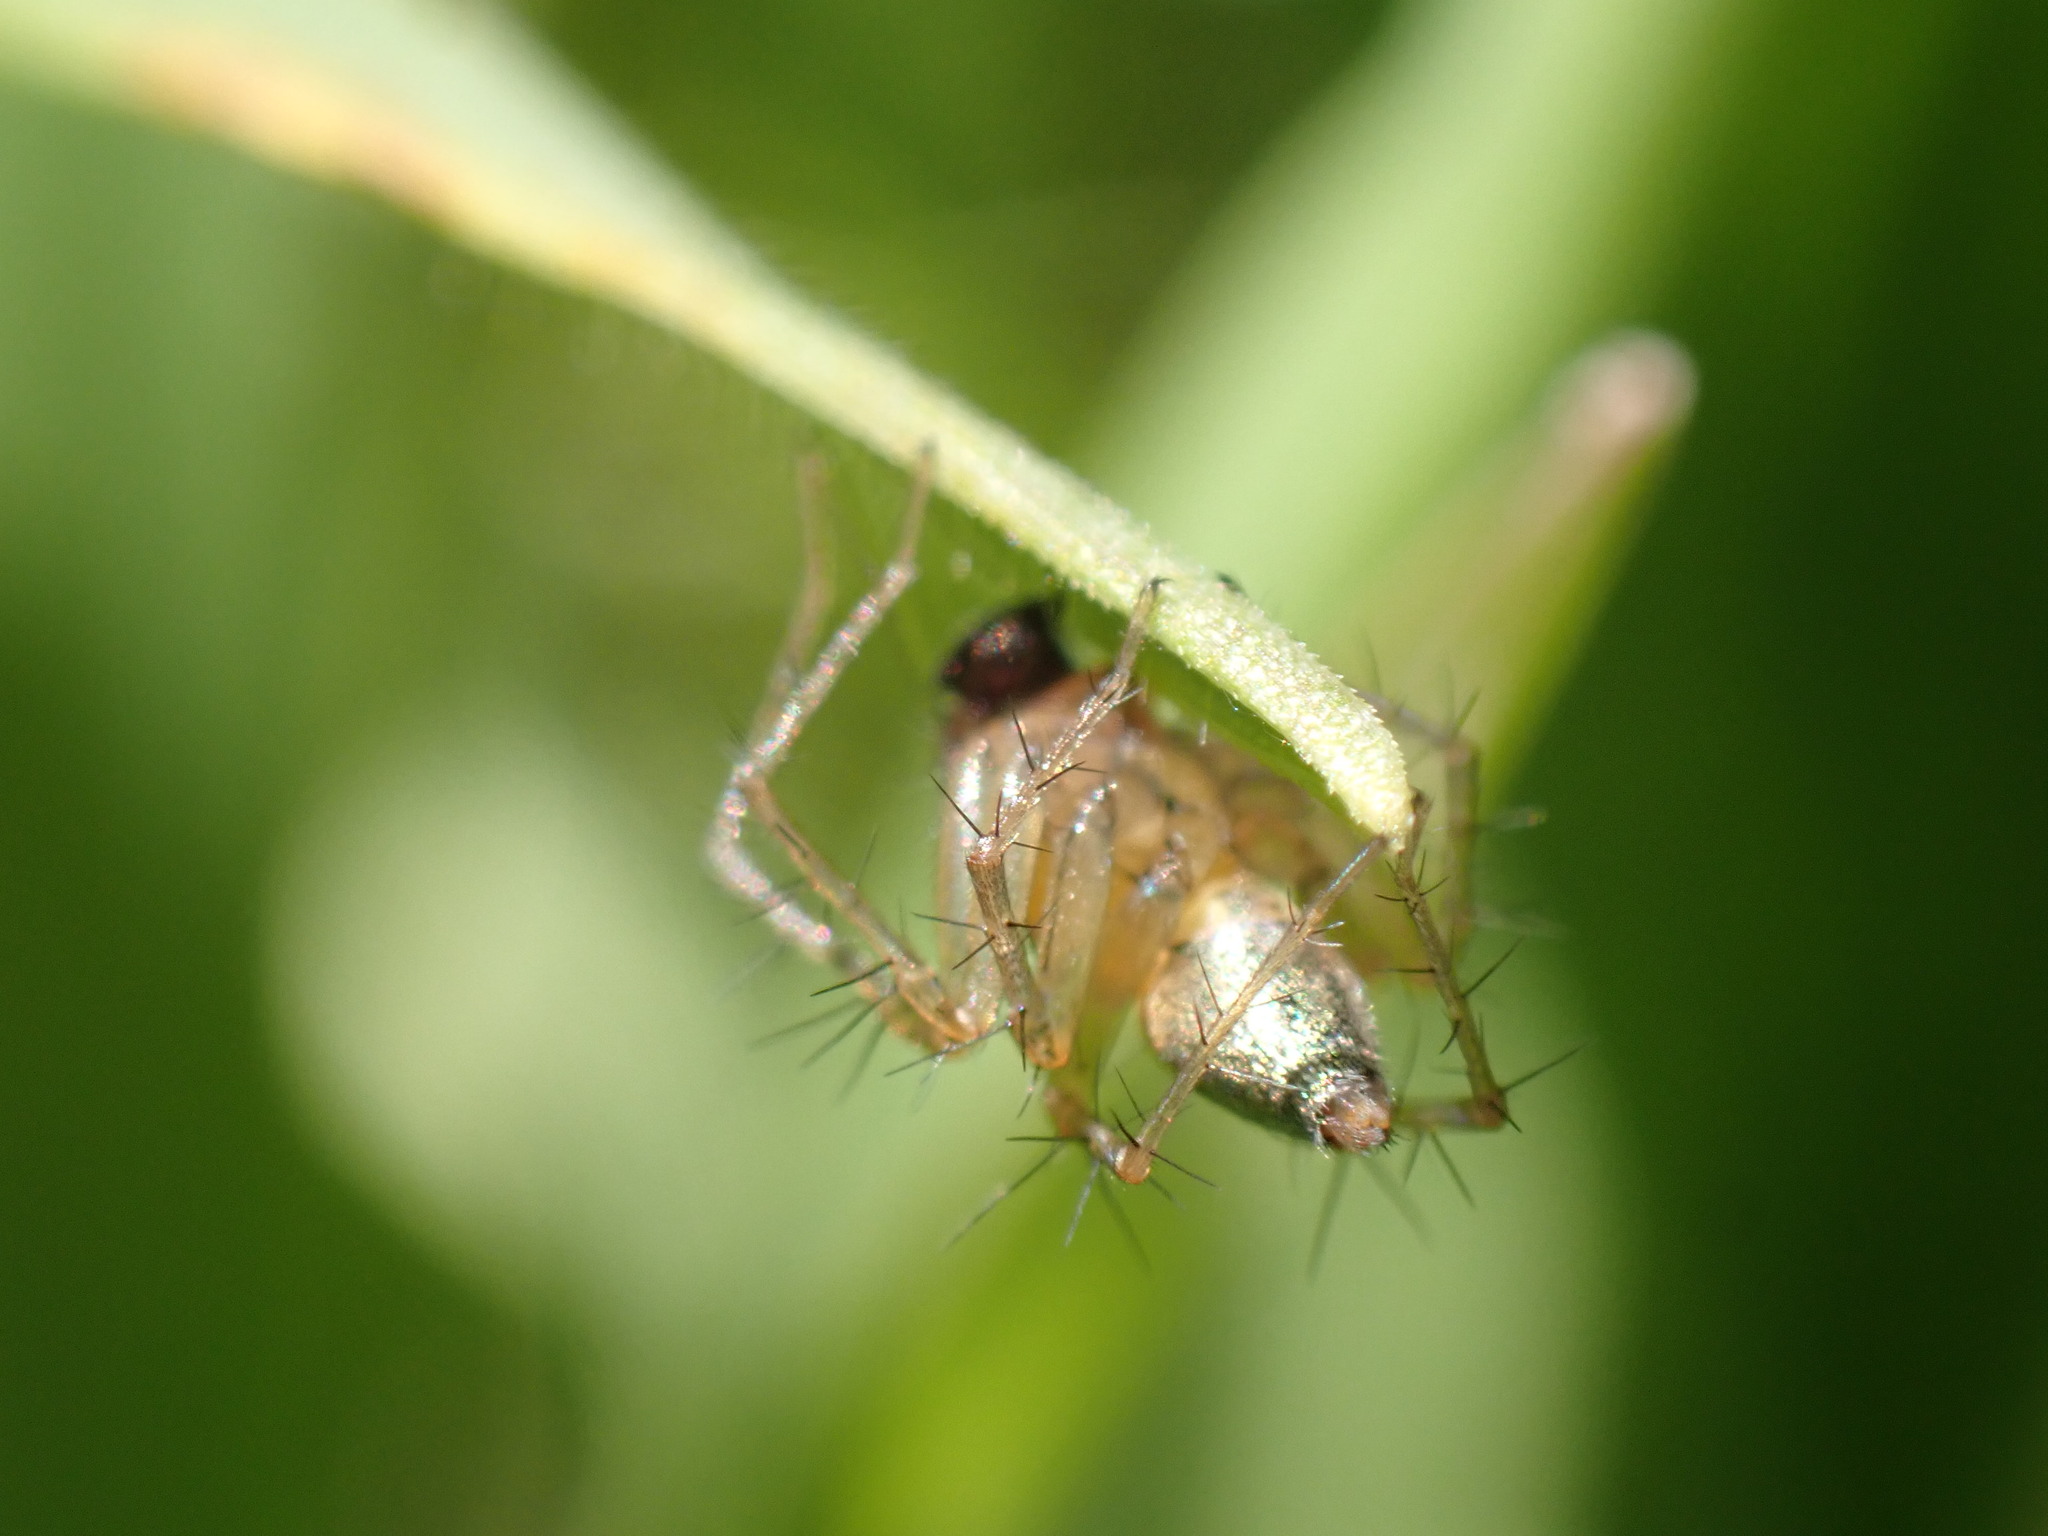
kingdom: Animalia
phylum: Arthropoda
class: Arachnida
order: Araneae
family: Oxyopidae
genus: Oxyopes
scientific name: Oxyopes salticus
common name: Lynx spiders
